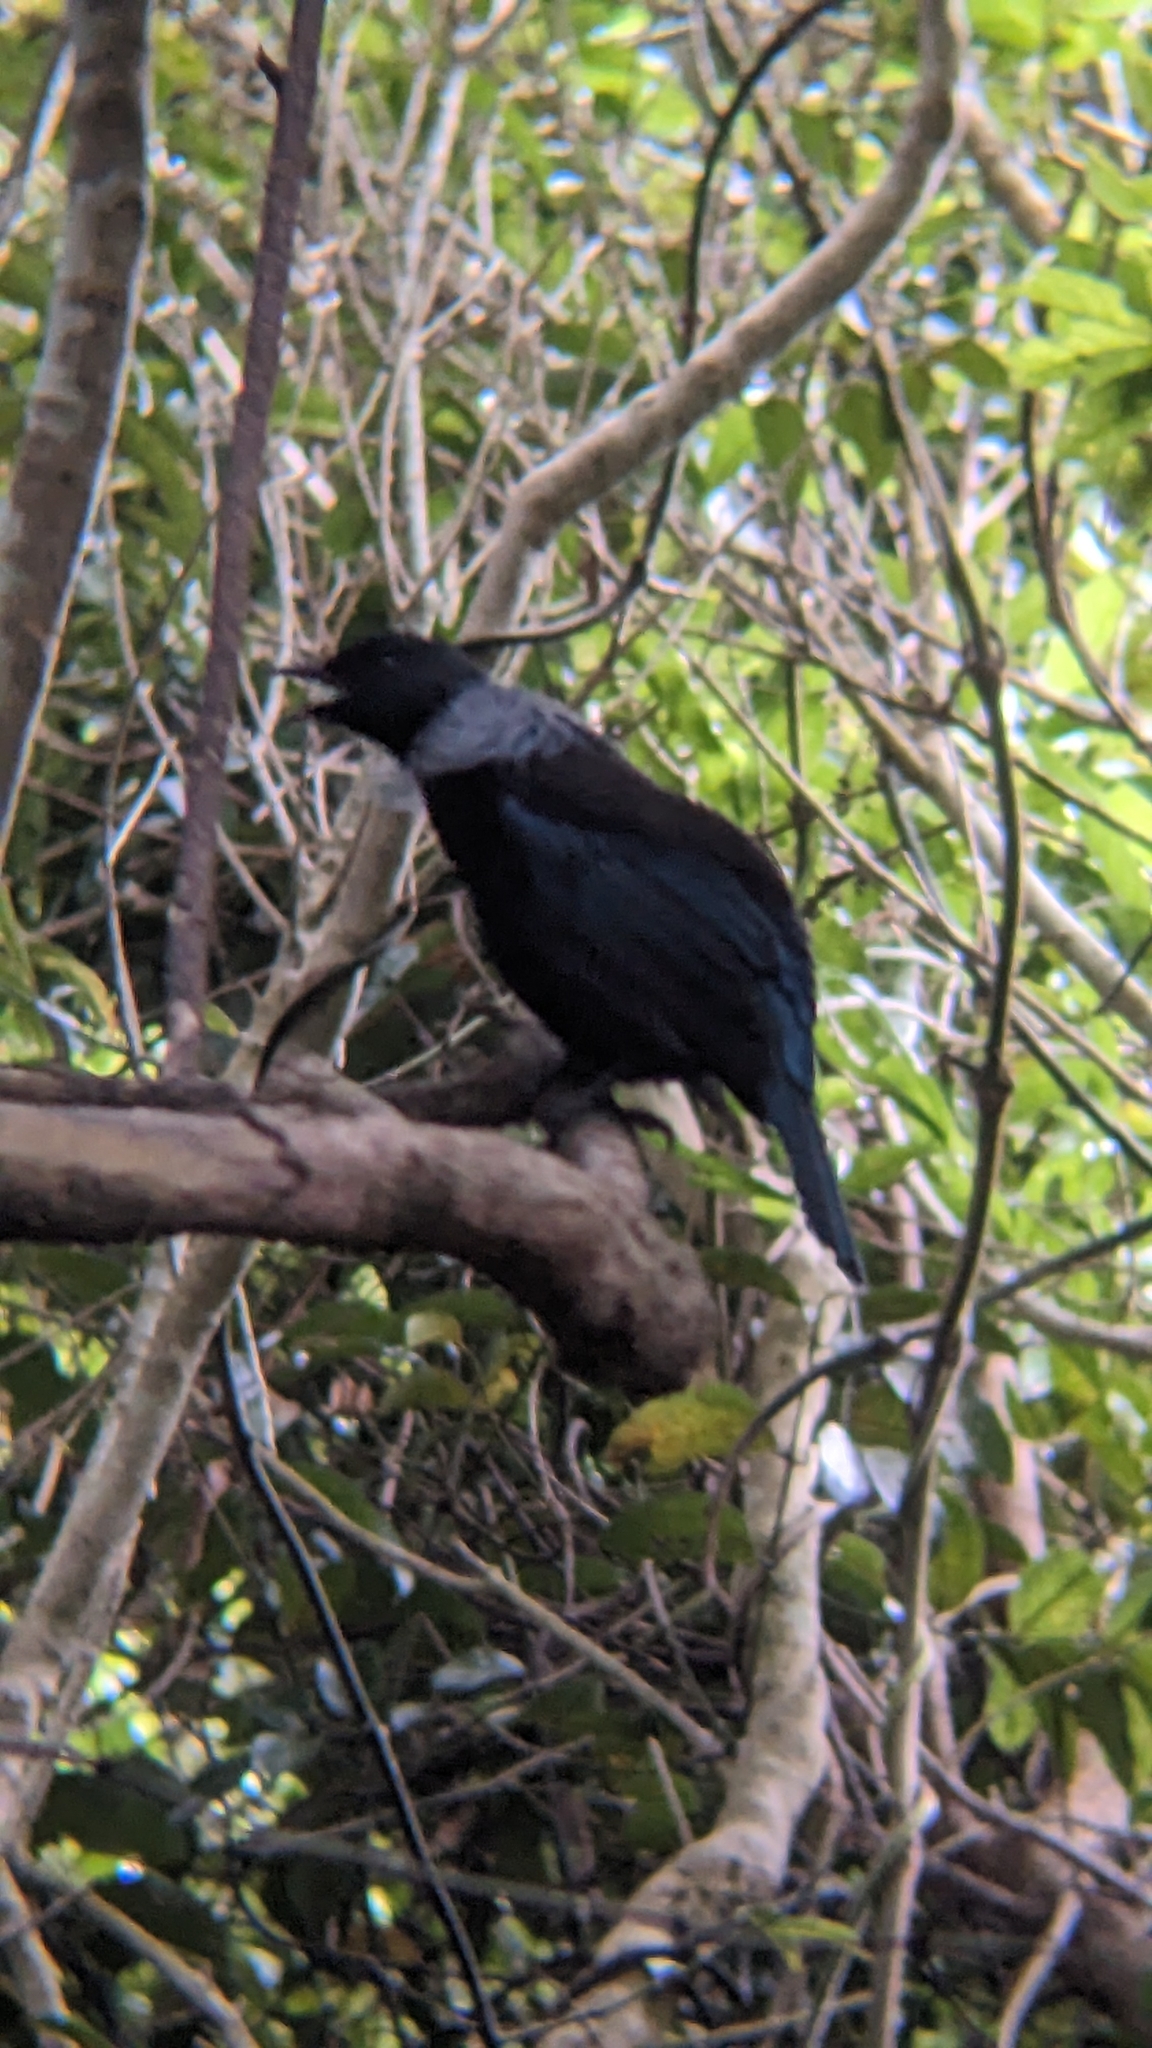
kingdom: Animalia
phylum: Chordata
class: Aves
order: Passeriformes
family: Meliphagidae
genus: Prosthemadera
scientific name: Prosthemadera novaeseelandiae
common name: Tui
